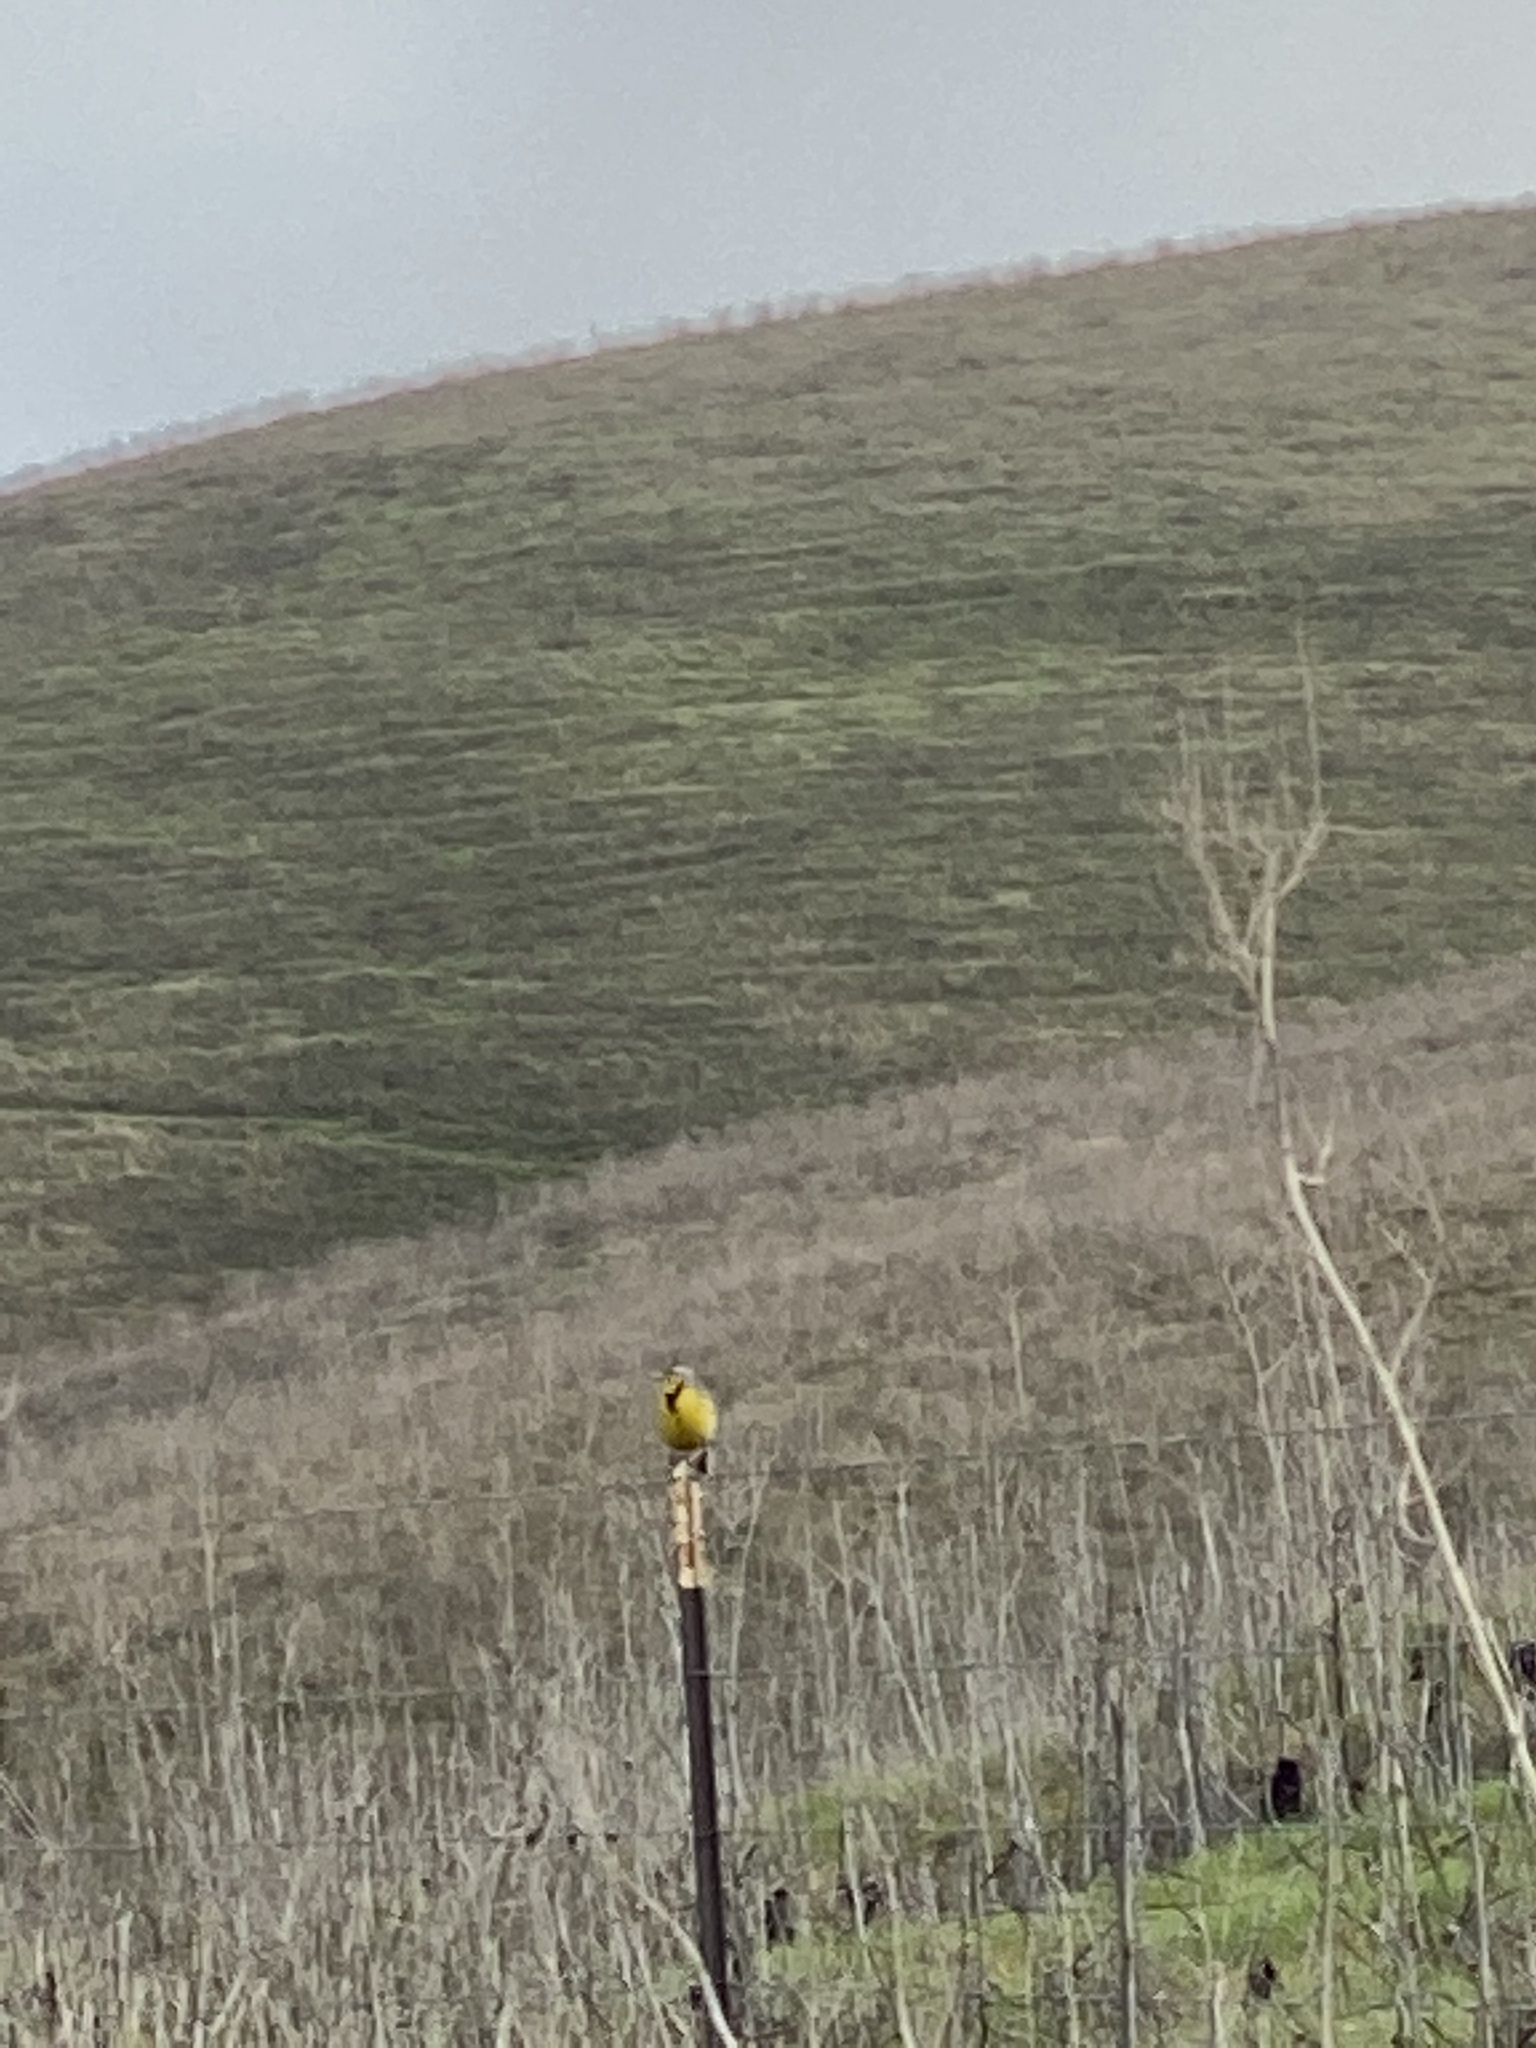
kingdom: Animalia
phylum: Chordata
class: Aves
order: Passeriformes
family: Icteridae
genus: Sturnella
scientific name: Sturnella neglecta
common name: Western meadowlark
